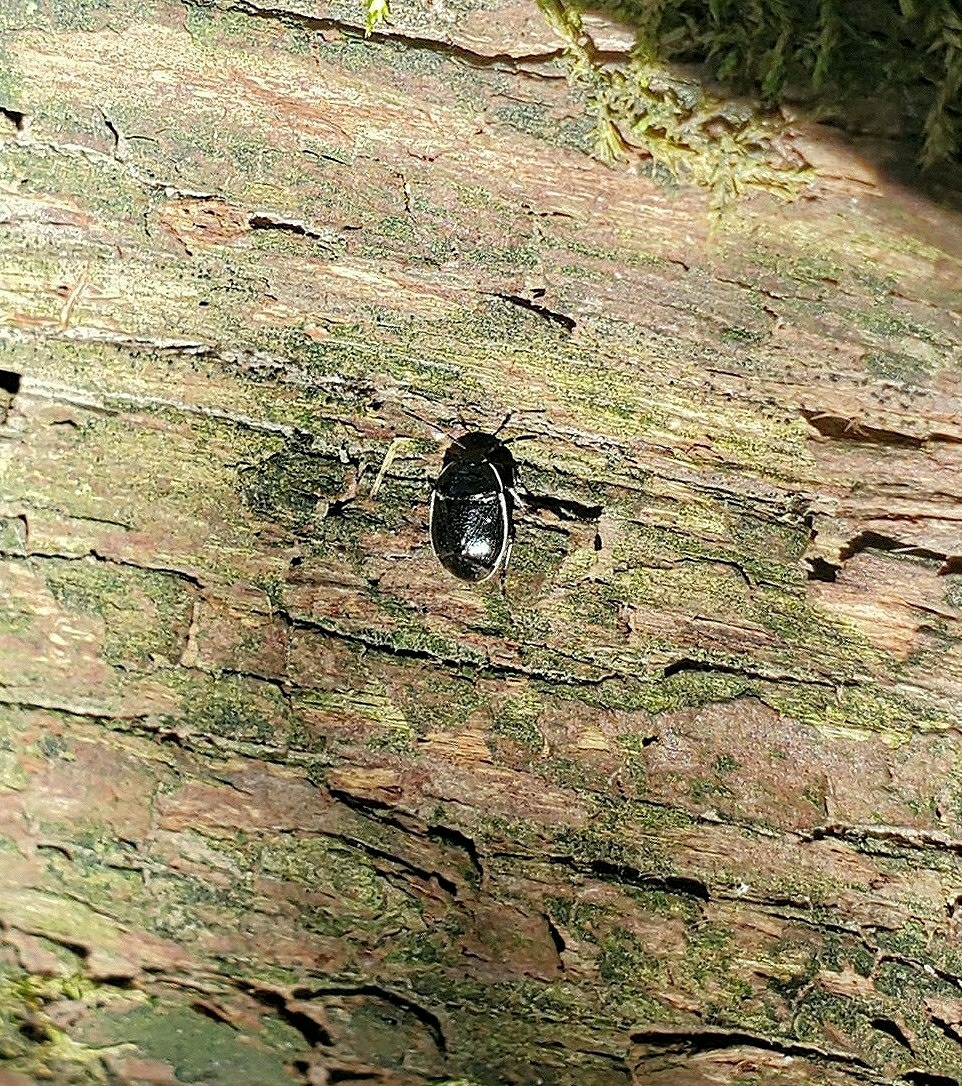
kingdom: Animalia
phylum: Arthropoda
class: Insecta
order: Hemiptera
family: Cydnidae
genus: Sehirus
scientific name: Sehirus cinctus
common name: White-margined burrower bug
